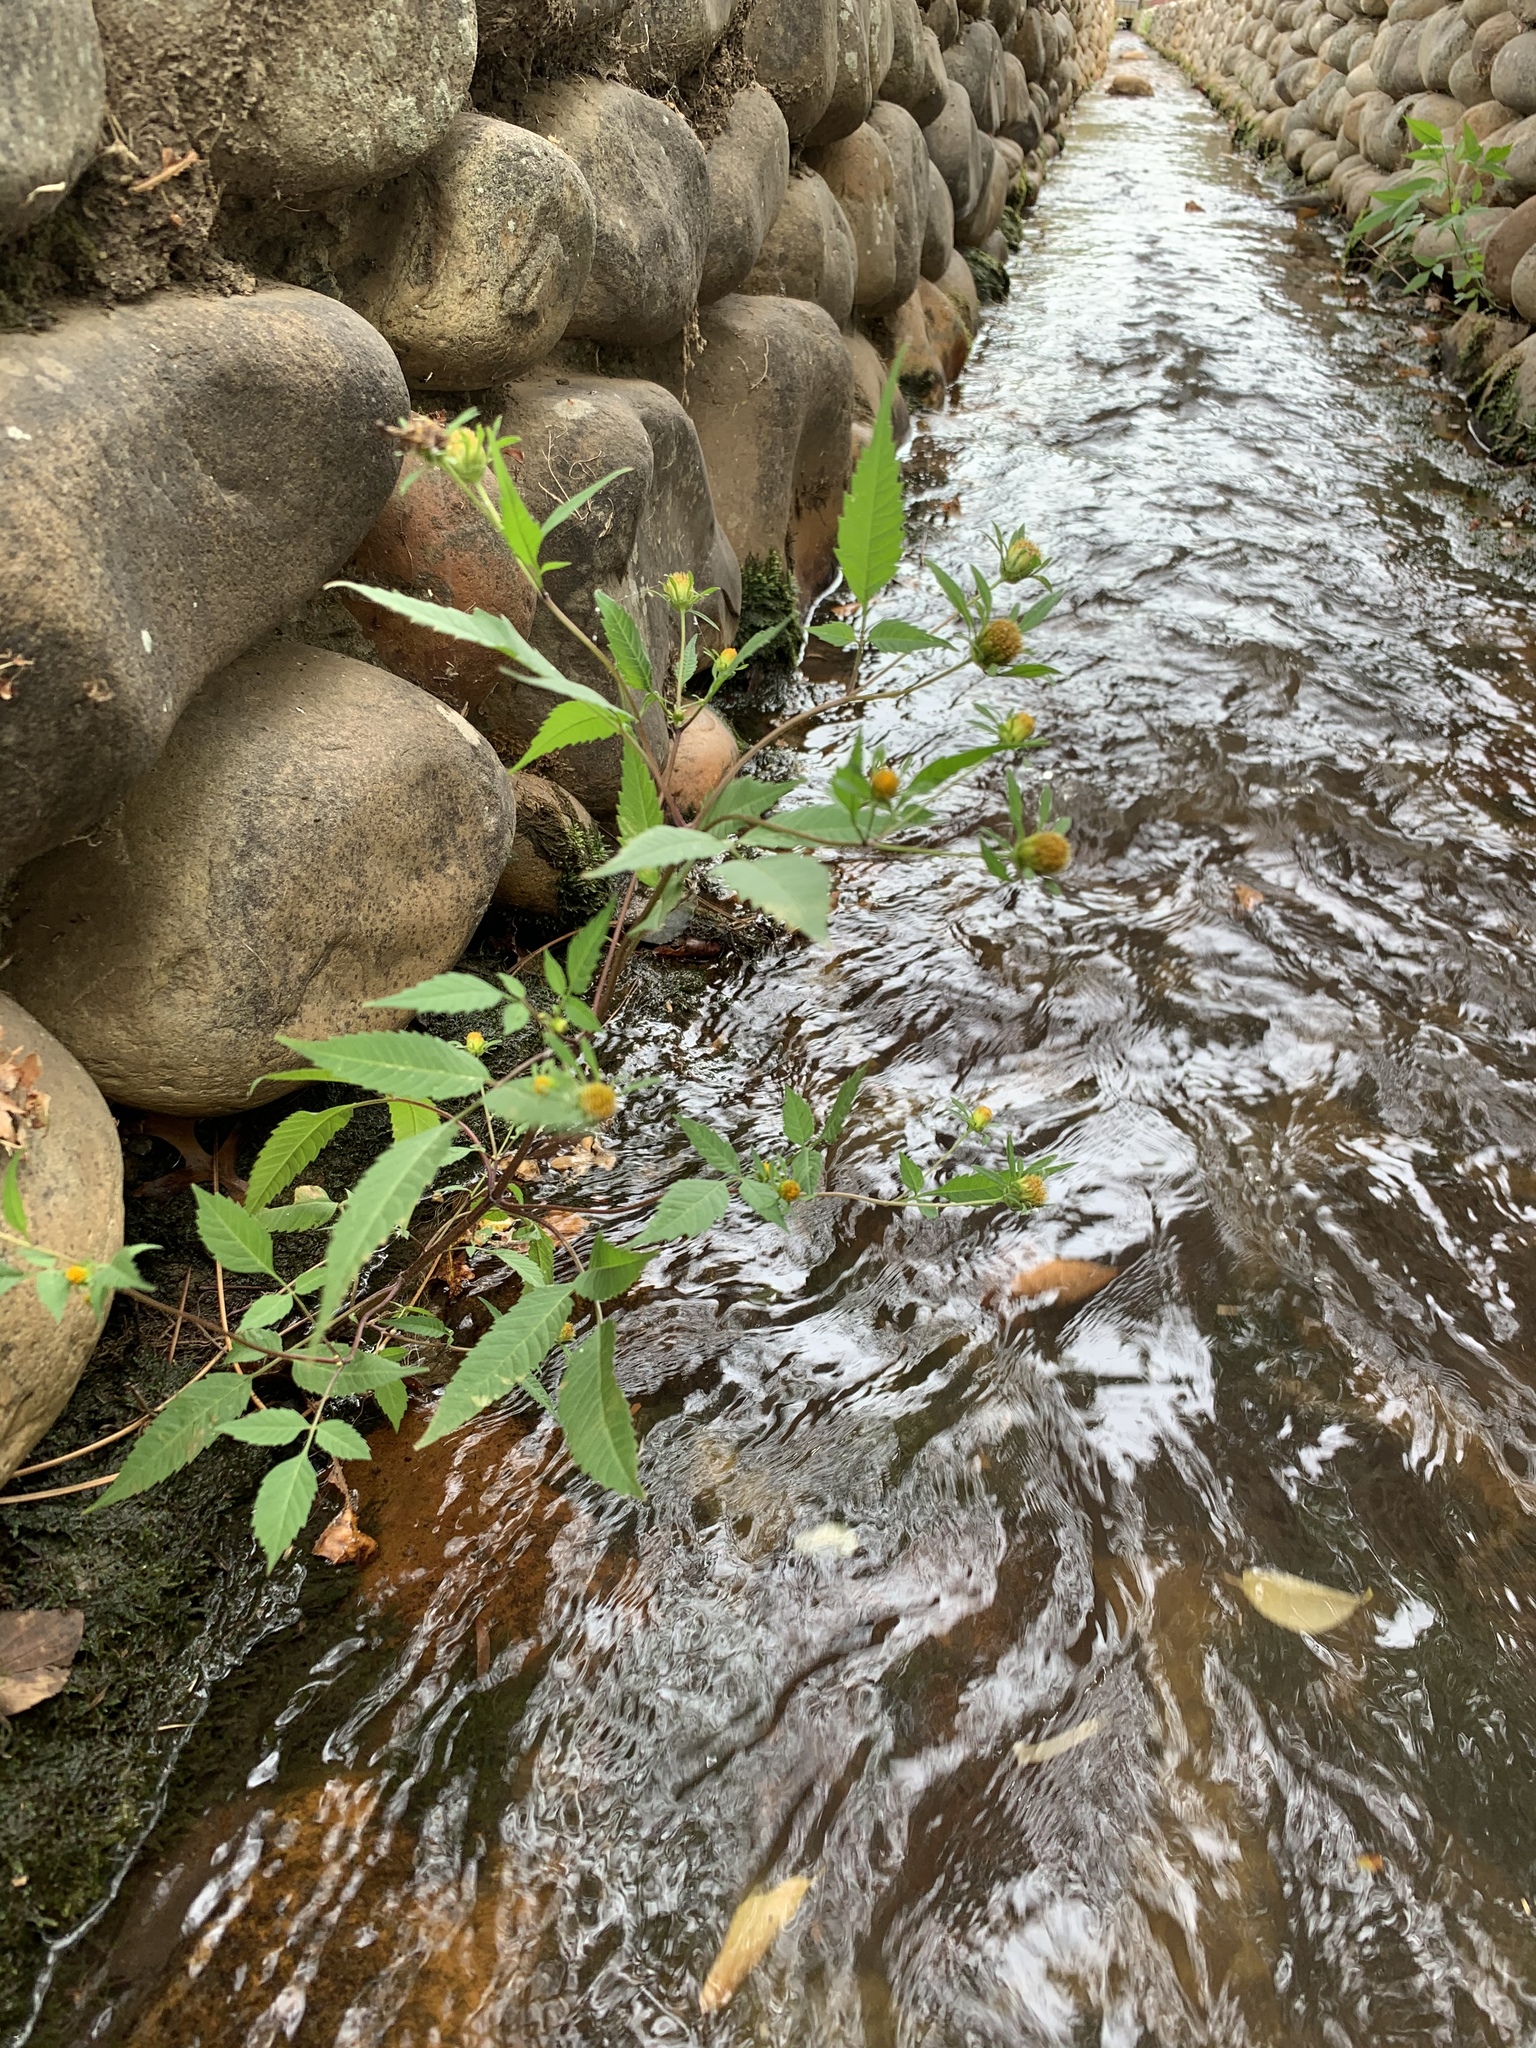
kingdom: Plantae
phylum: Tracheophyta
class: Magnoliopsida
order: Asterales
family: Asteraceae
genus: Bidens
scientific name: Bidens pilosa
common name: Black-jack
